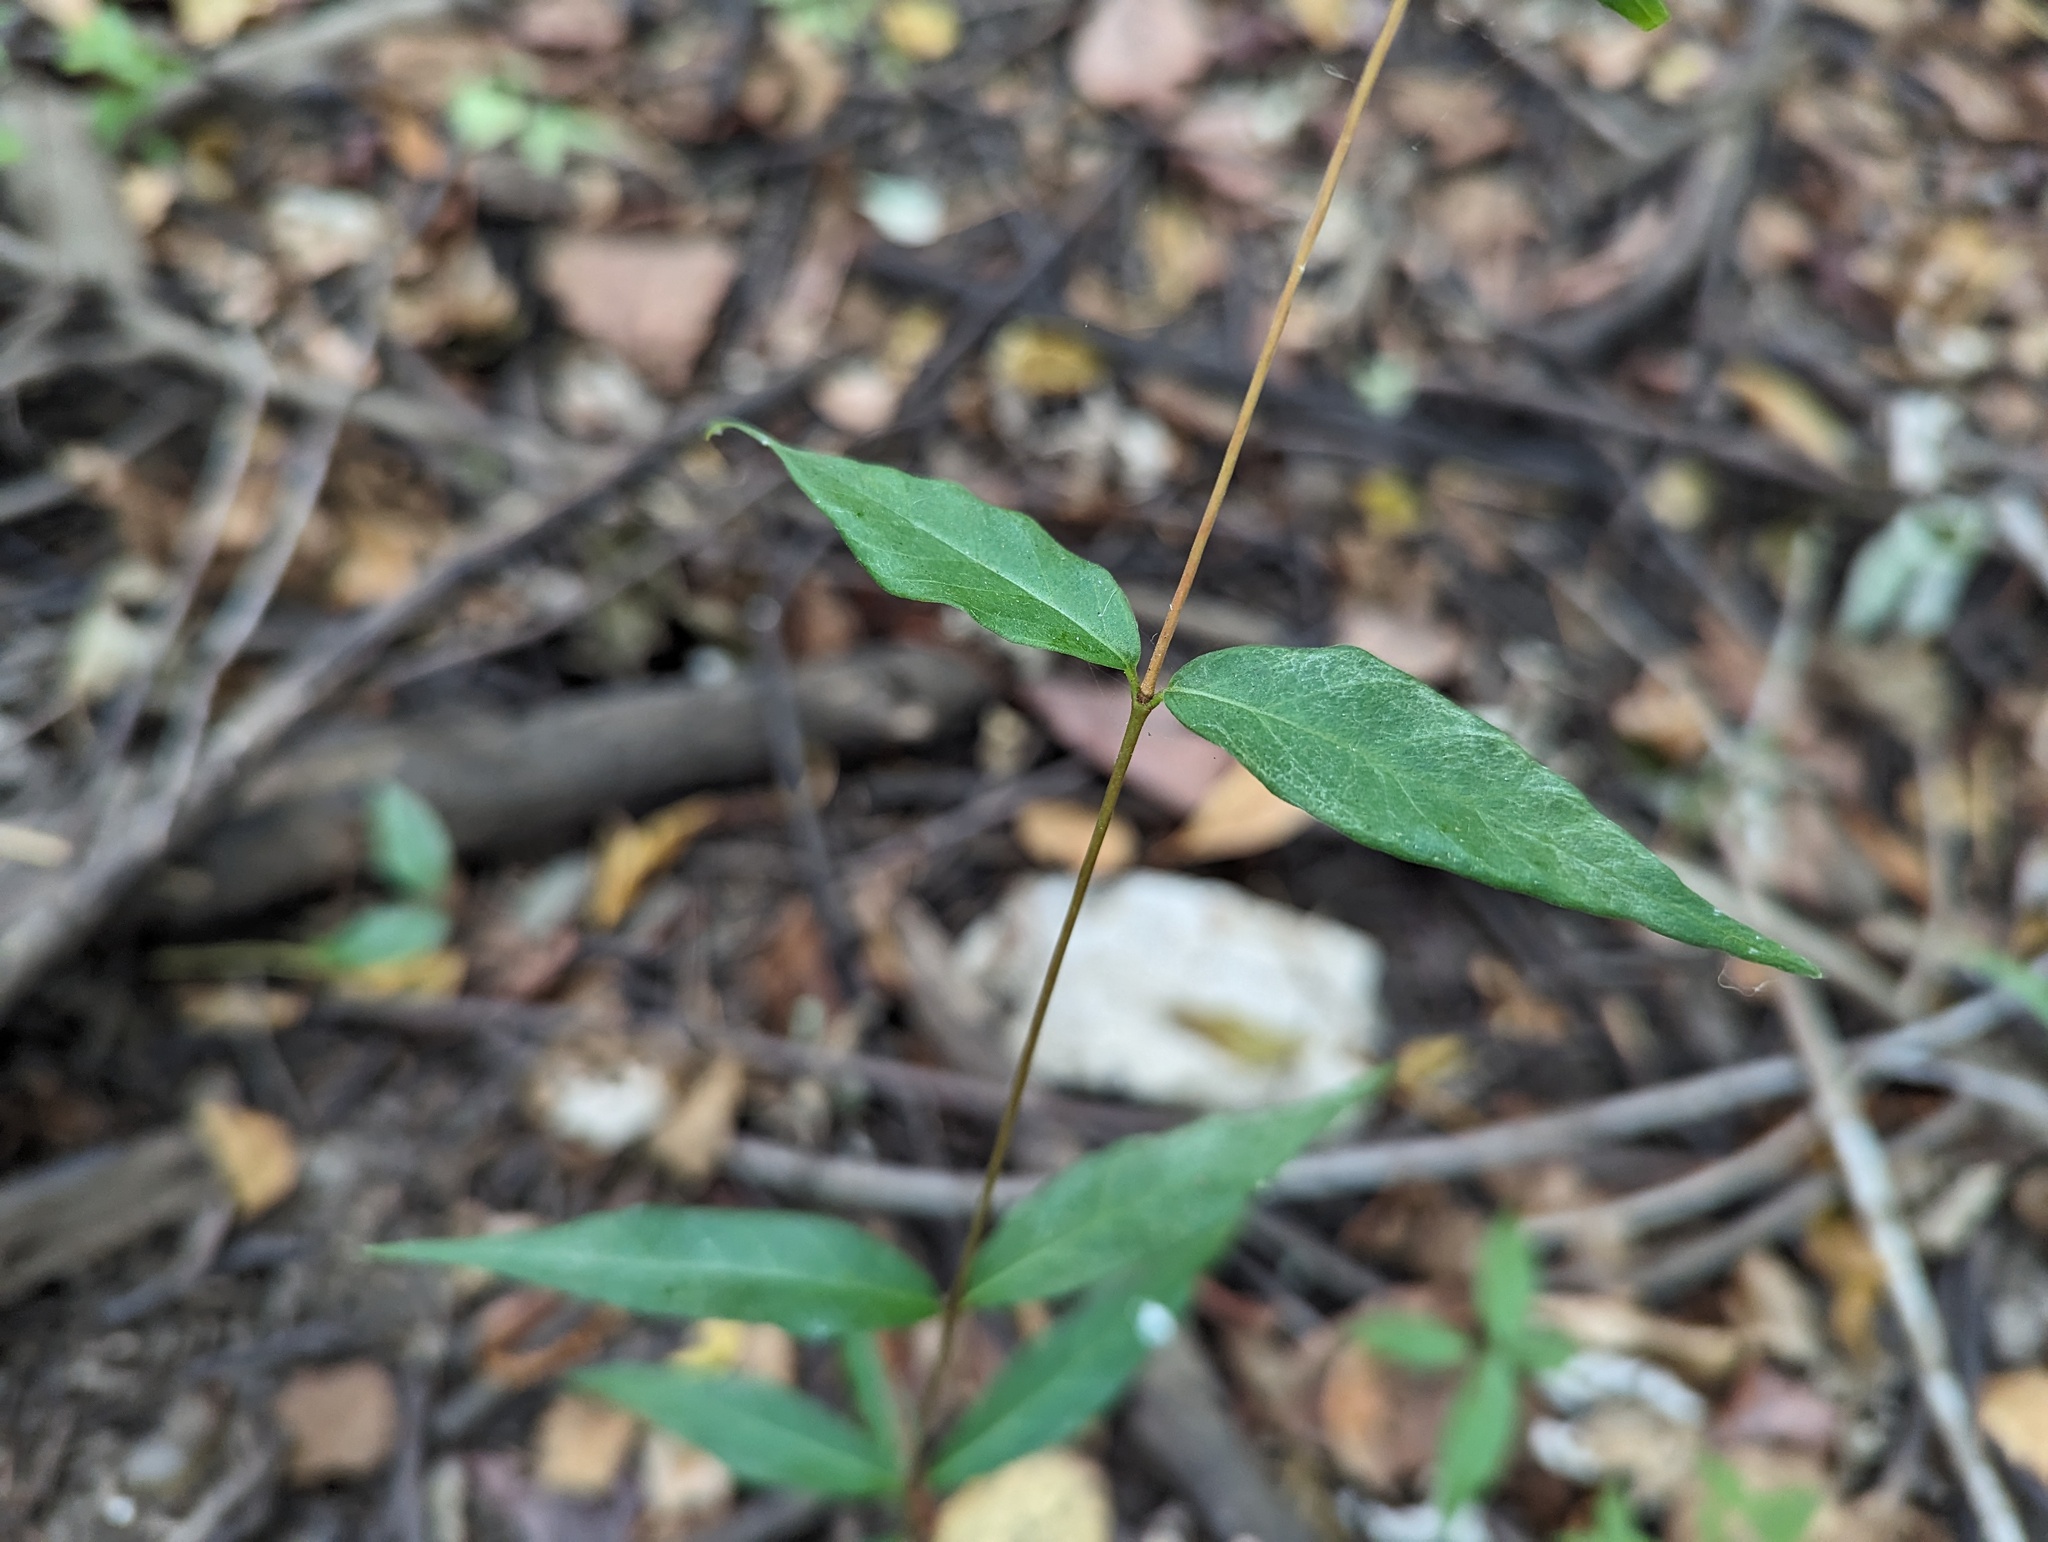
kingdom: Plantae
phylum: Tracheophyta
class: Magnoliopsida
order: Gentianales
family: Apocynaceae
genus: Thyrsanthella
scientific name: Thyrsanthella difformis
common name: Climbing dogbane
